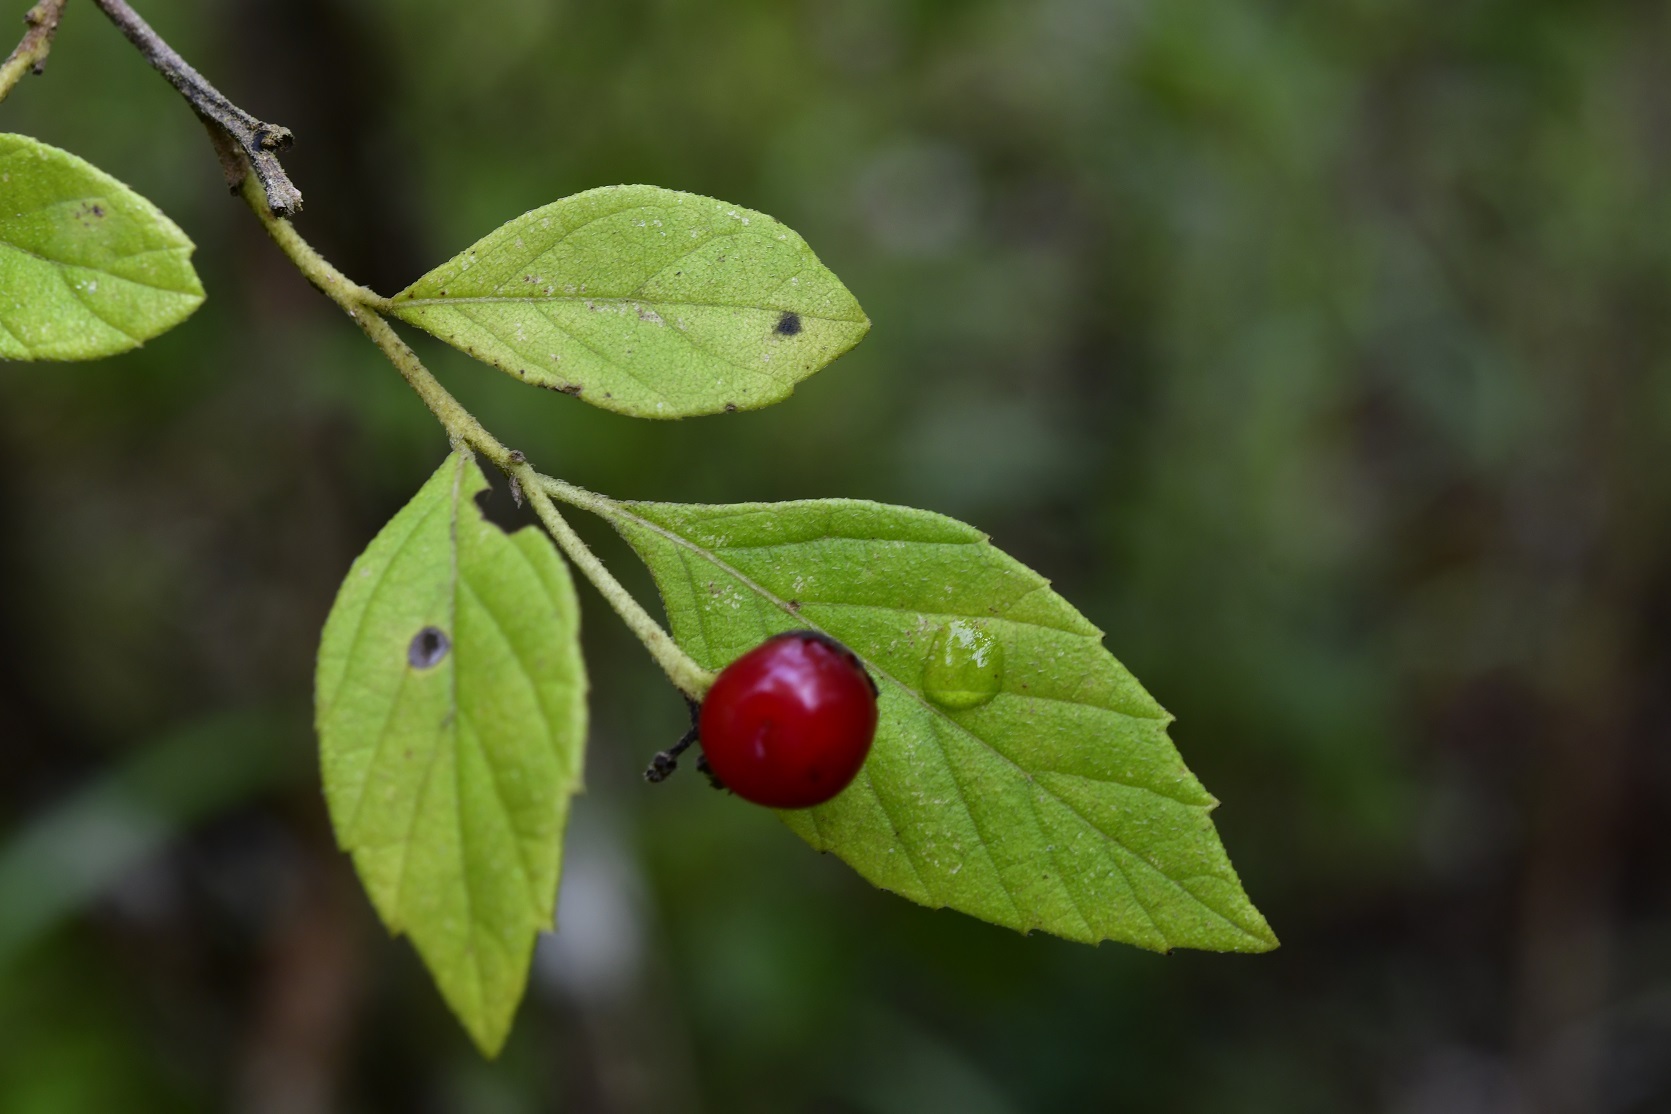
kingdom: Plantae
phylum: Tracheophyta
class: Magnoliopsida
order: Boraginales
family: Cordiaceae
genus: Varronia
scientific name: Varronia foliosa
